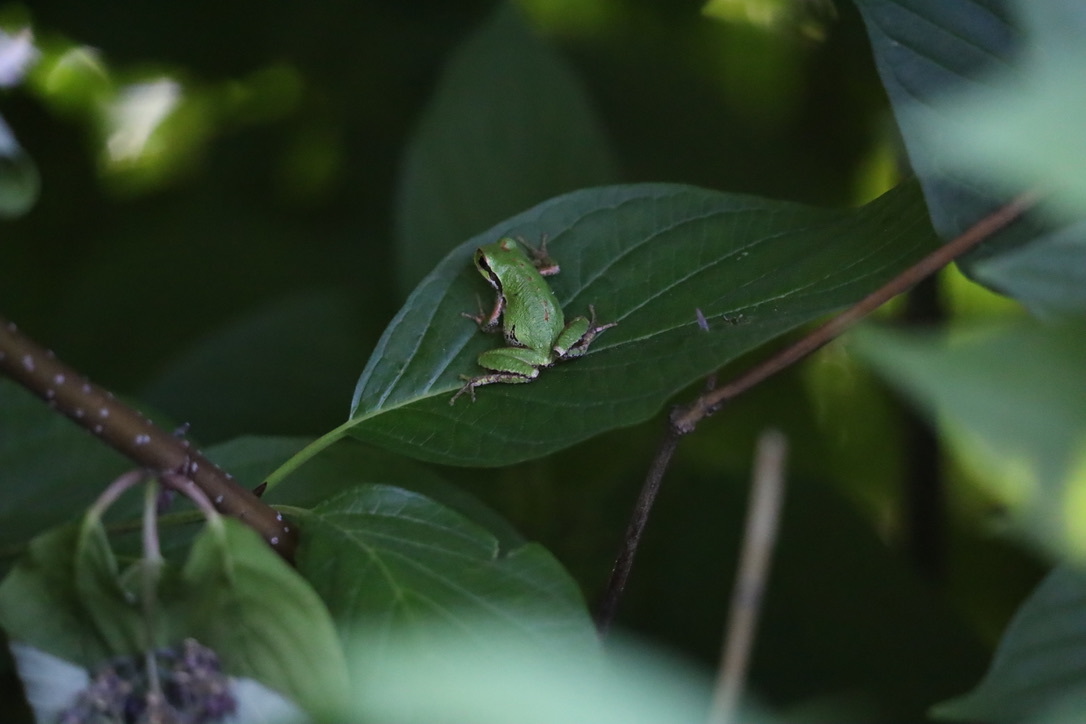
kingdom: Animalia
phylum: Chordata
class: Amphibia
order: Anura
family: Hylidae
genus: Pseudacris
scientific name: Pseudacris regilla
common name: Pacific chorus frog
